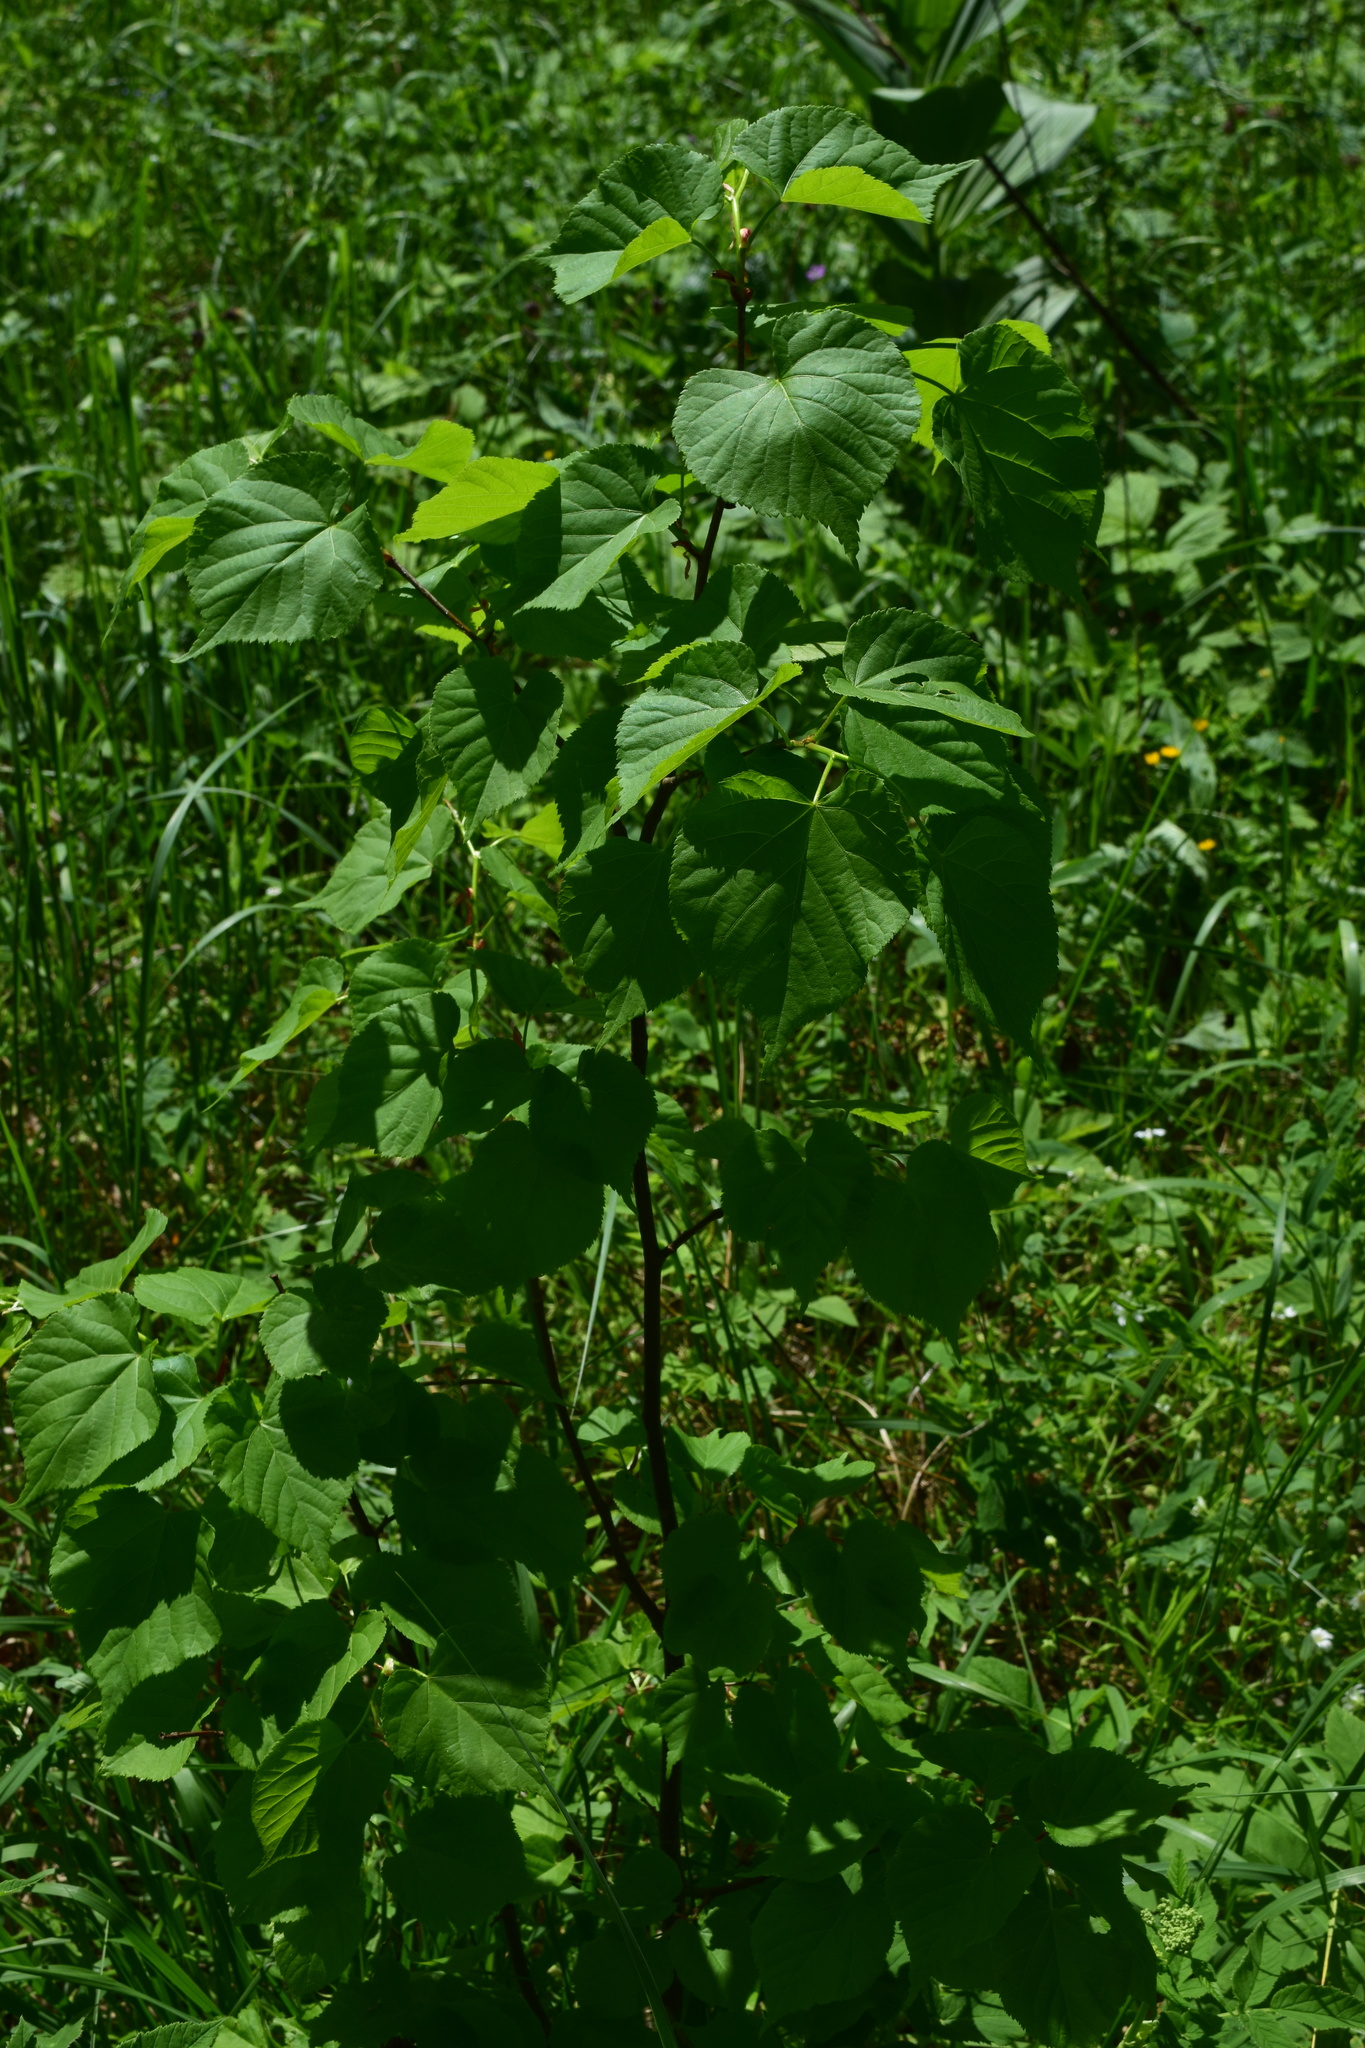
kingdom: Plantae
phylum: Tracheophyta
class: Magnoliopsida
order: Malvales
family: Malvaceae
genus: Tilia
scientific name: Tilia cordata
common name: Small-leaved lime
